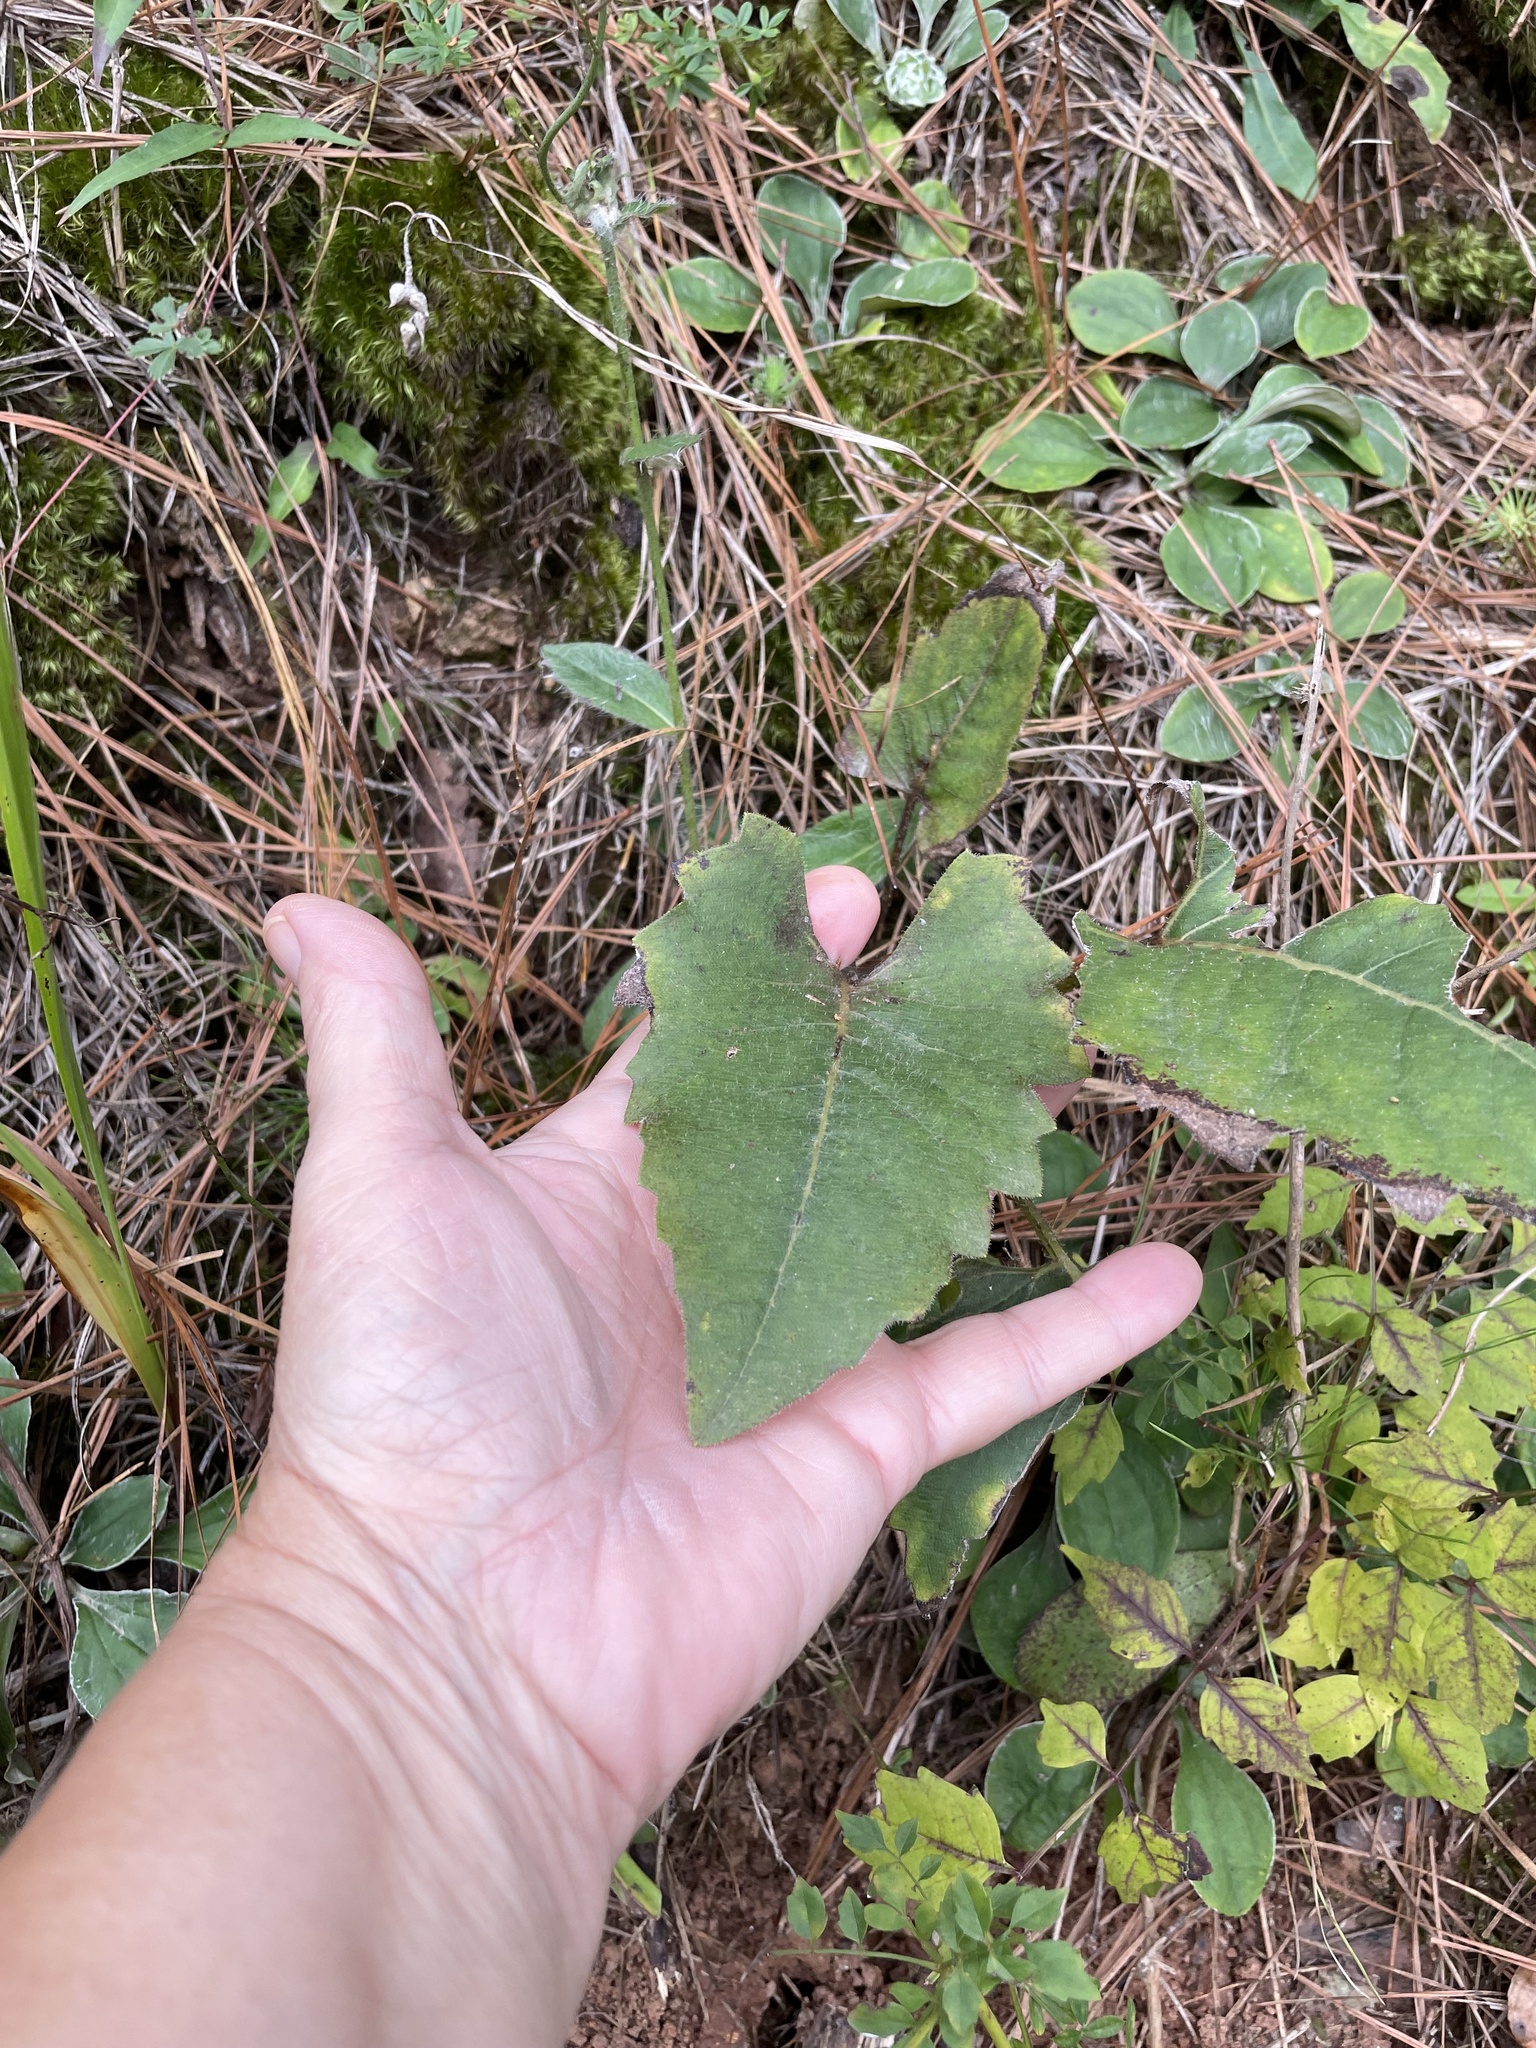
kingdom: Plantae
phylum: Tracheophyta
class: Magnoliopsida
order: Asterales
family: Asteraceae
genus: Silphium
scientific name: Silphium compositum
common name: Lesser basal-leaf rosinweed
